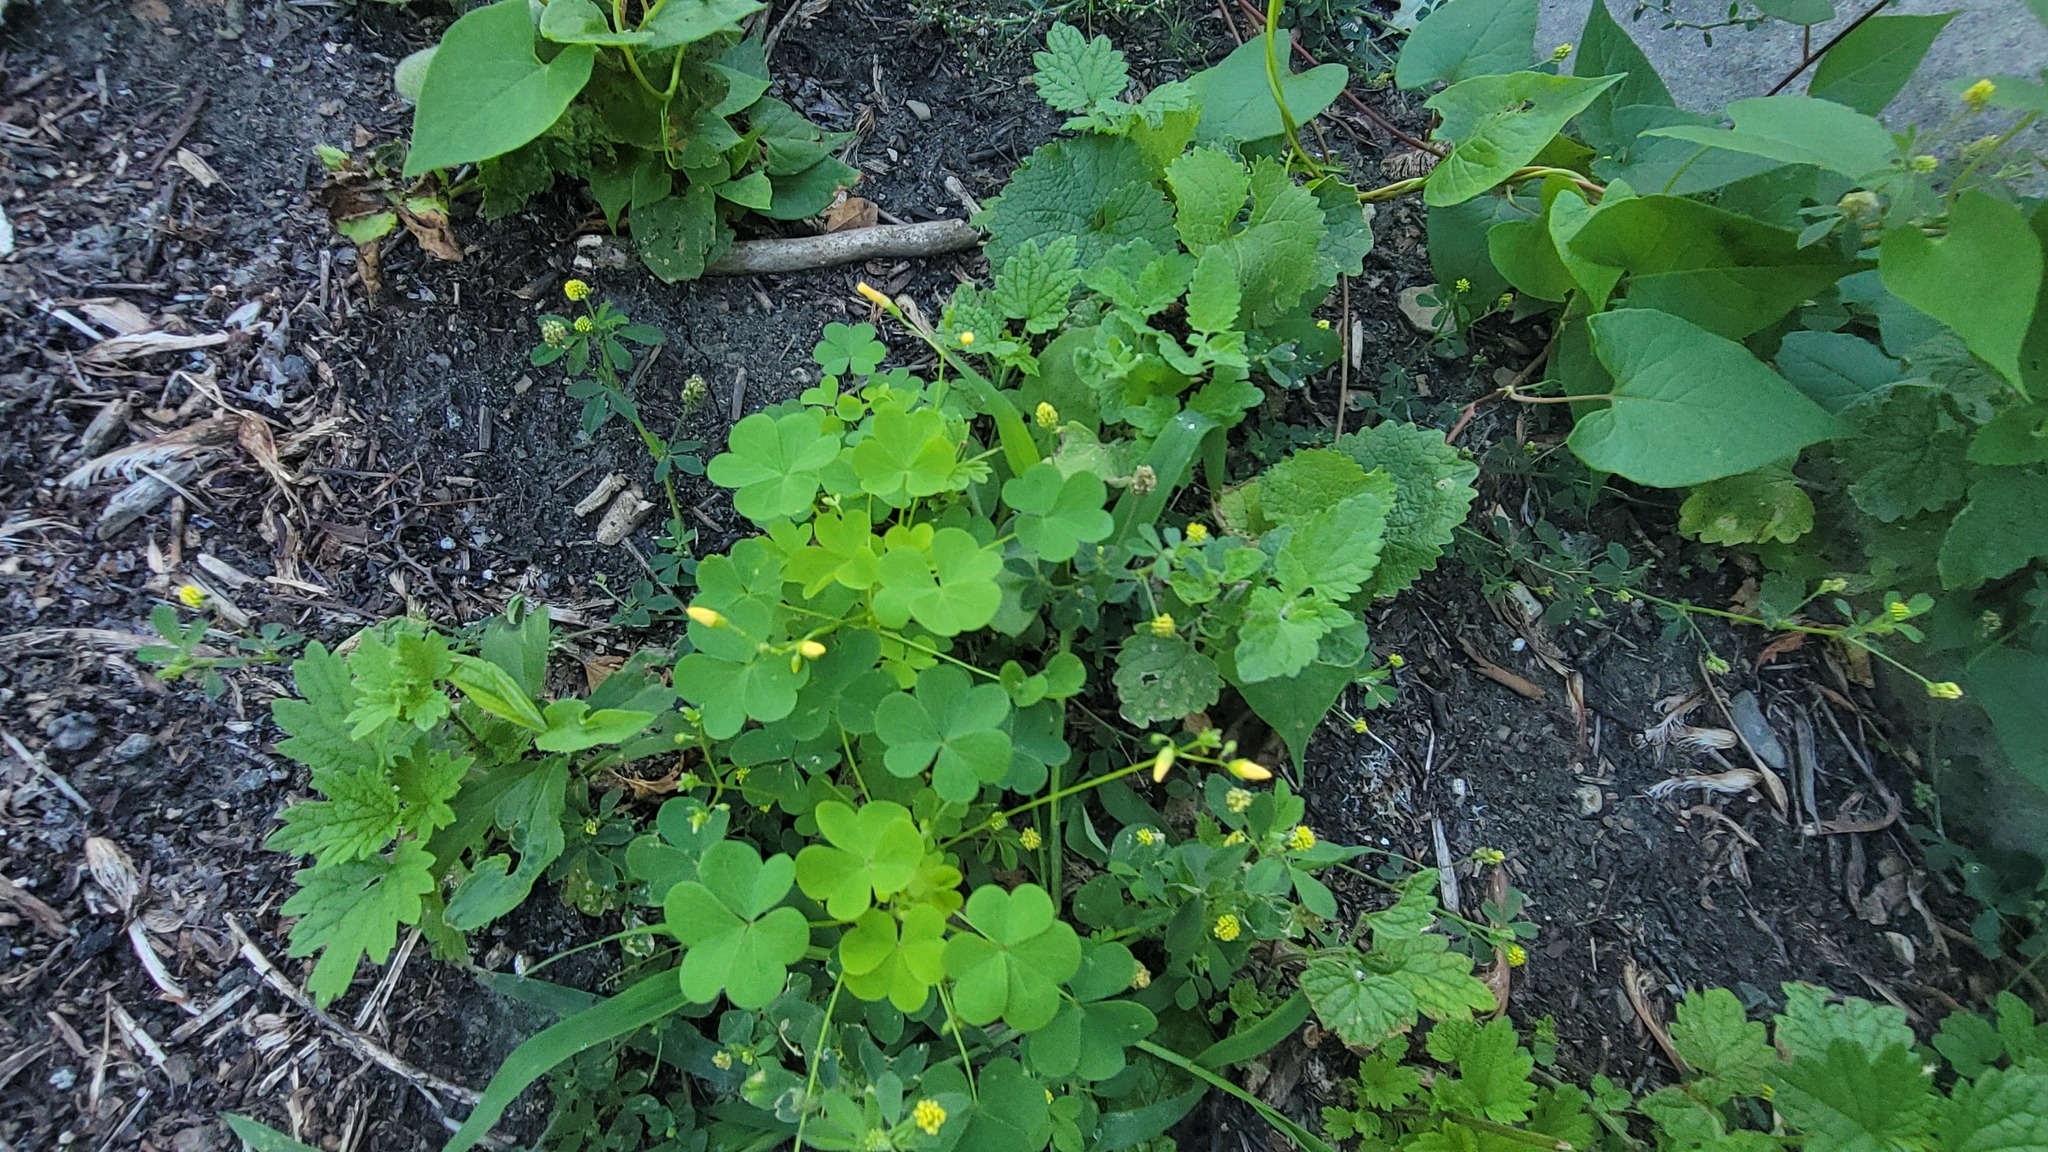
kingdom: Plantae
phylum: Tracheophyta
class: Magnoliopsida
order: Fabales
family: Fabaceae
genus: Medicago
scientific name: Medicago lupulina
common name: Black medick
